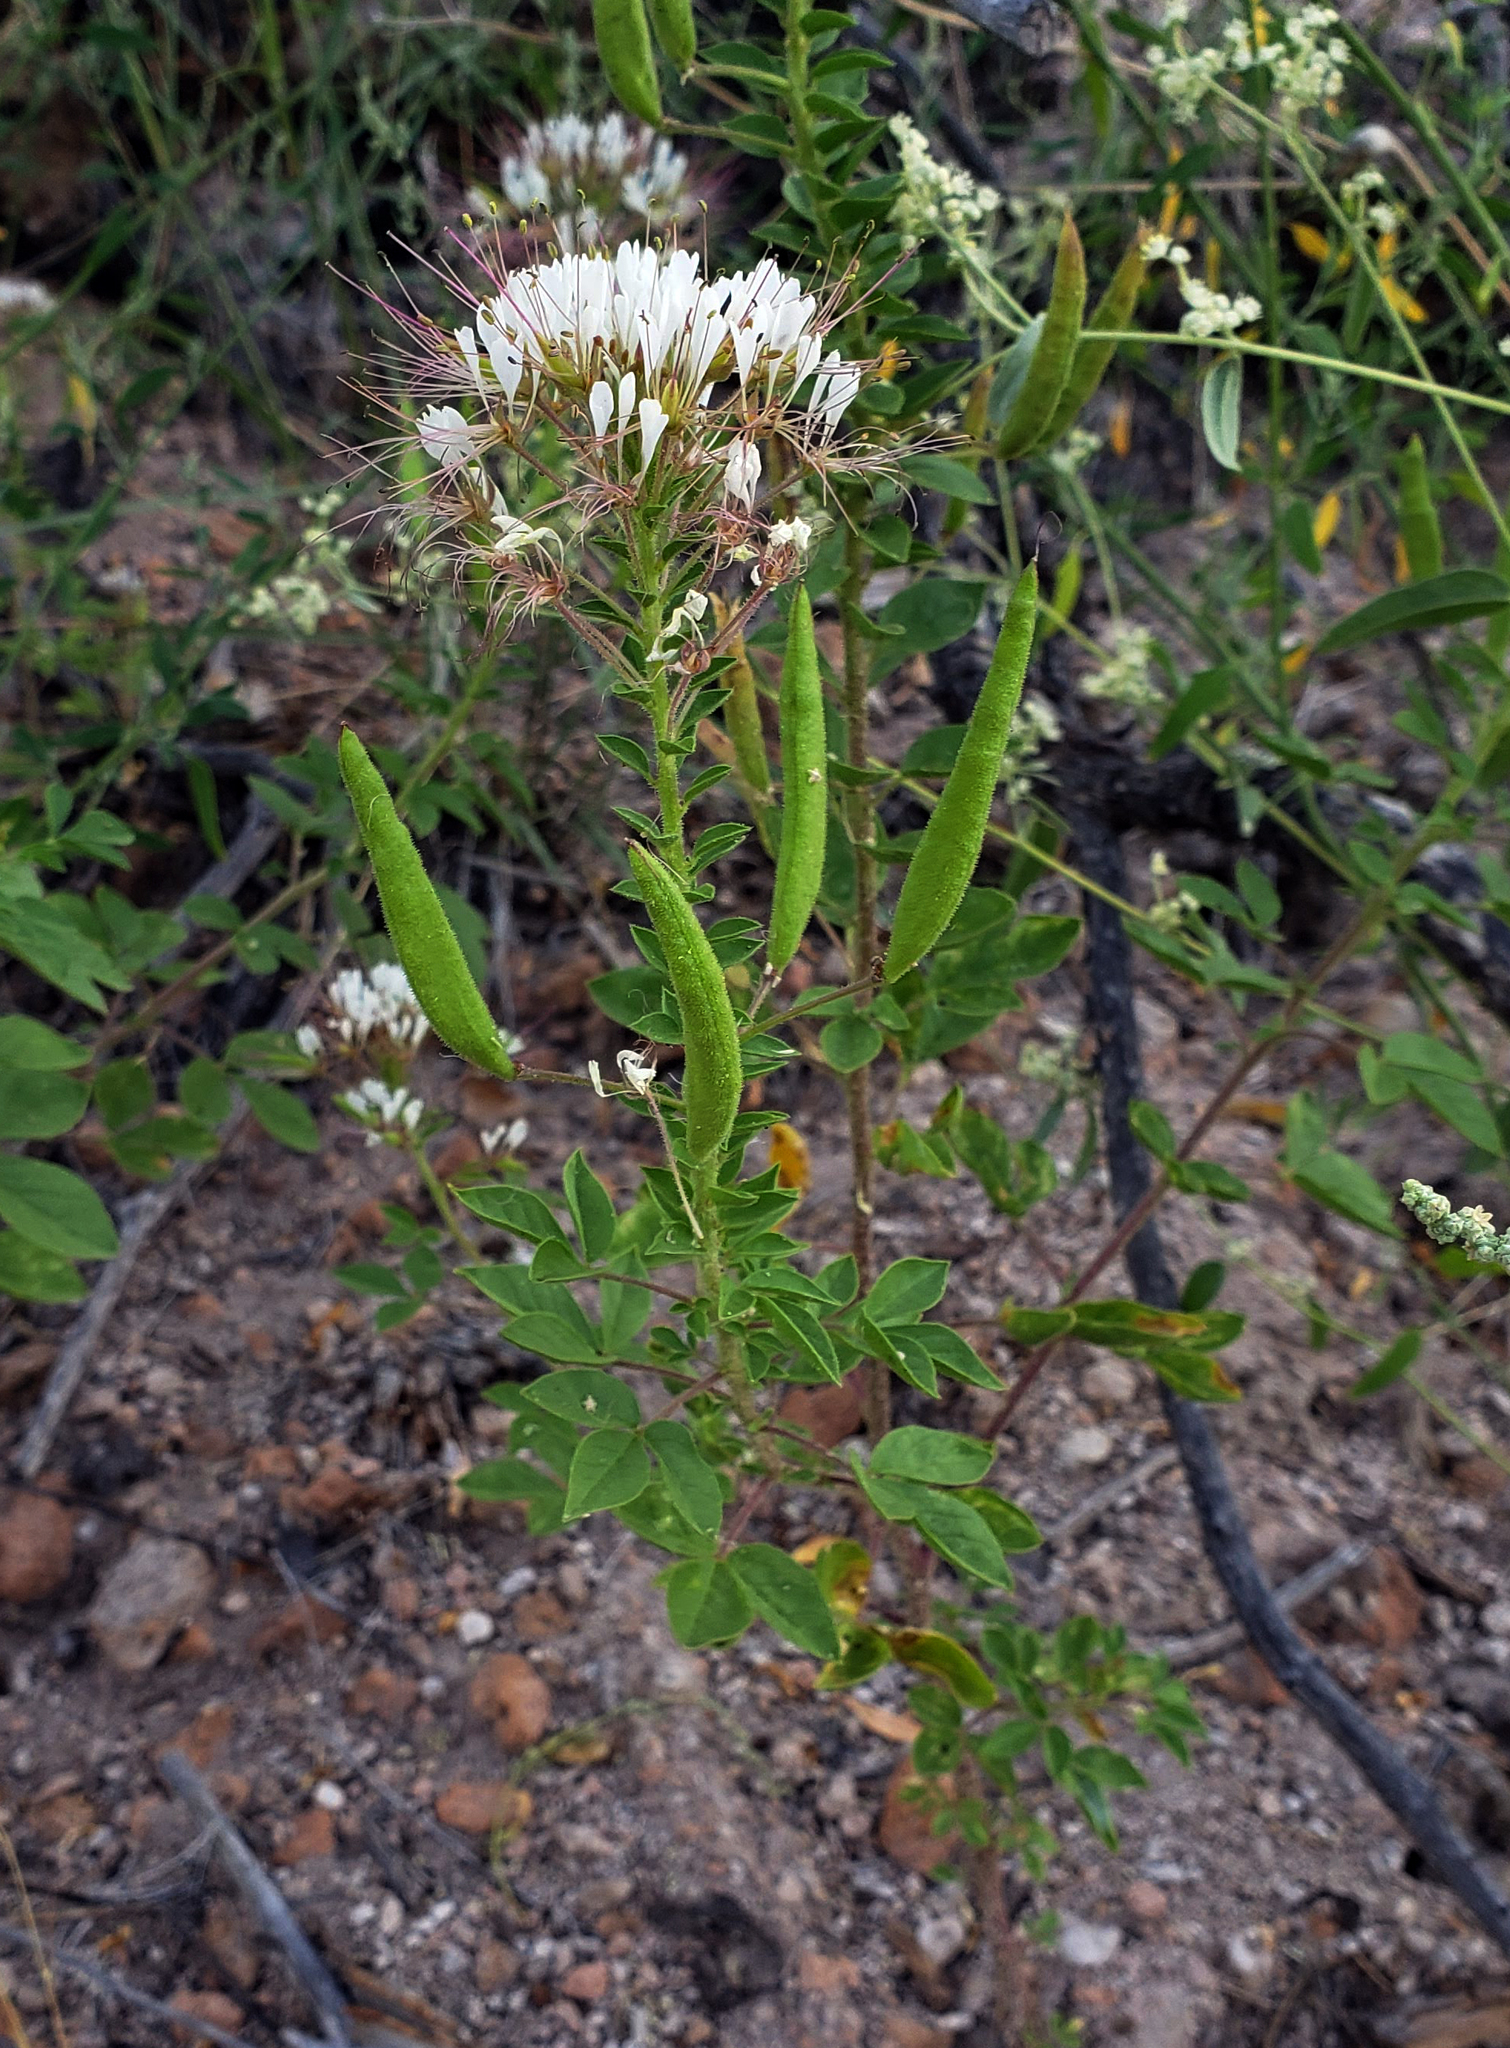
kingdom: Plantae
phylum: Tracheophyta
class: Magnoliopsida
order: Brassicales
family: Cleomaceae
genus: Polanisia
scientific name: Polanisia dodecandra
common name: Clammyweed
